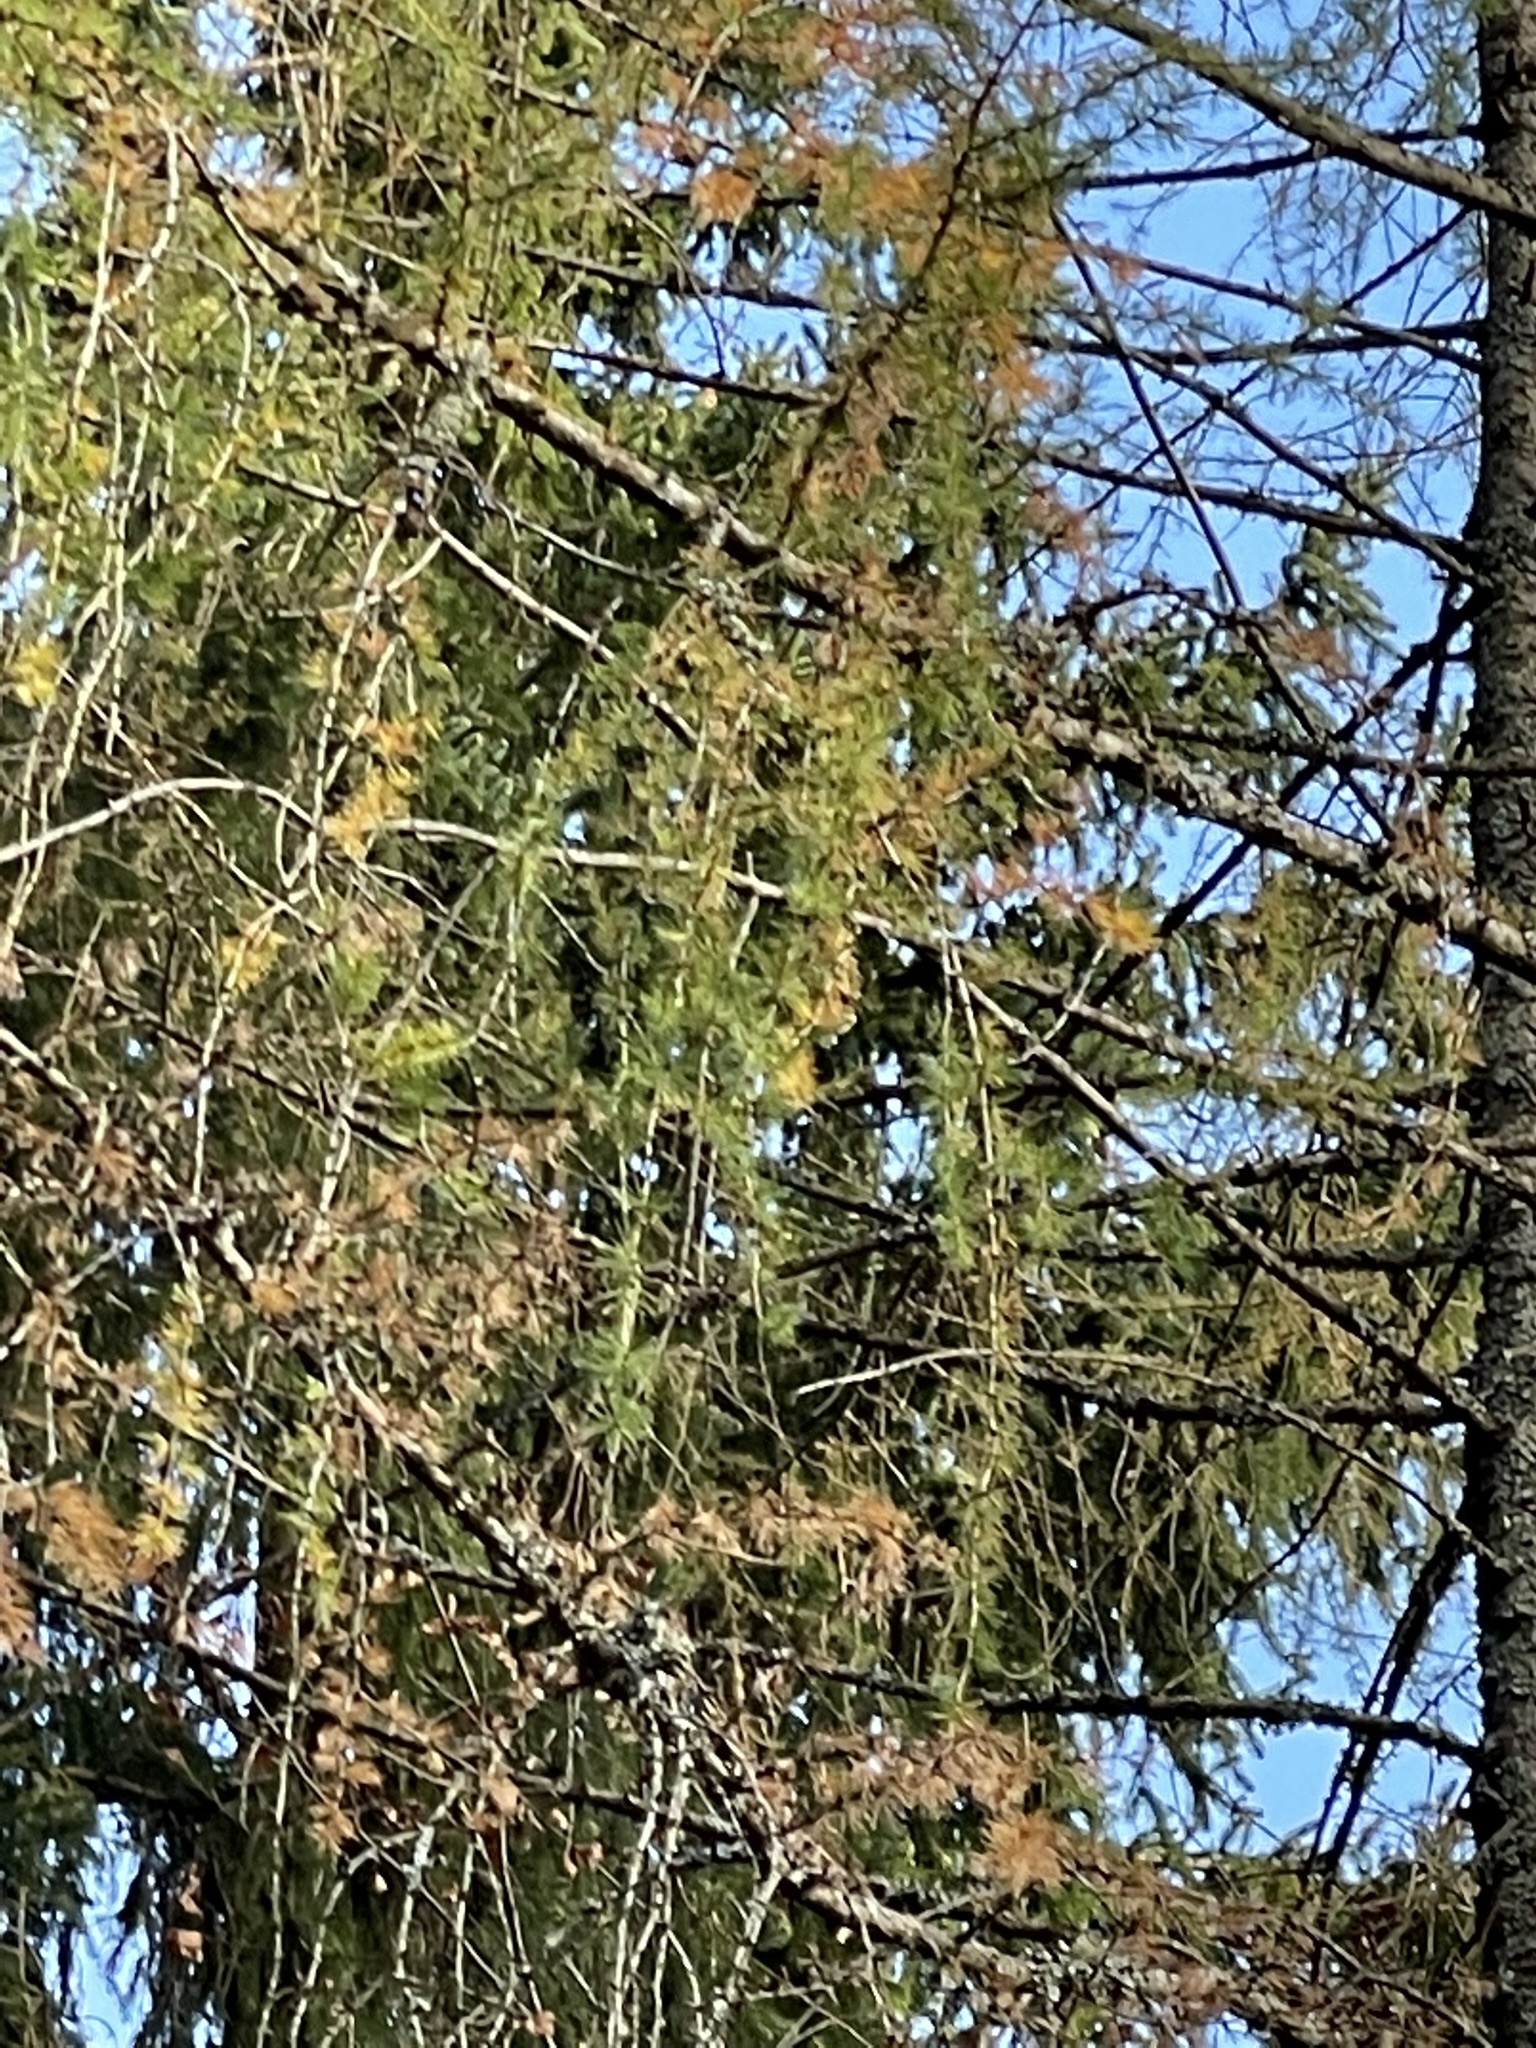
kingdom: Plantae
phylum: Tracheophyta
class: Pinopsida
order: Pinales
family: Pinaceae
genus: Larix
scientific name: Larix decidua
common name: European larch
